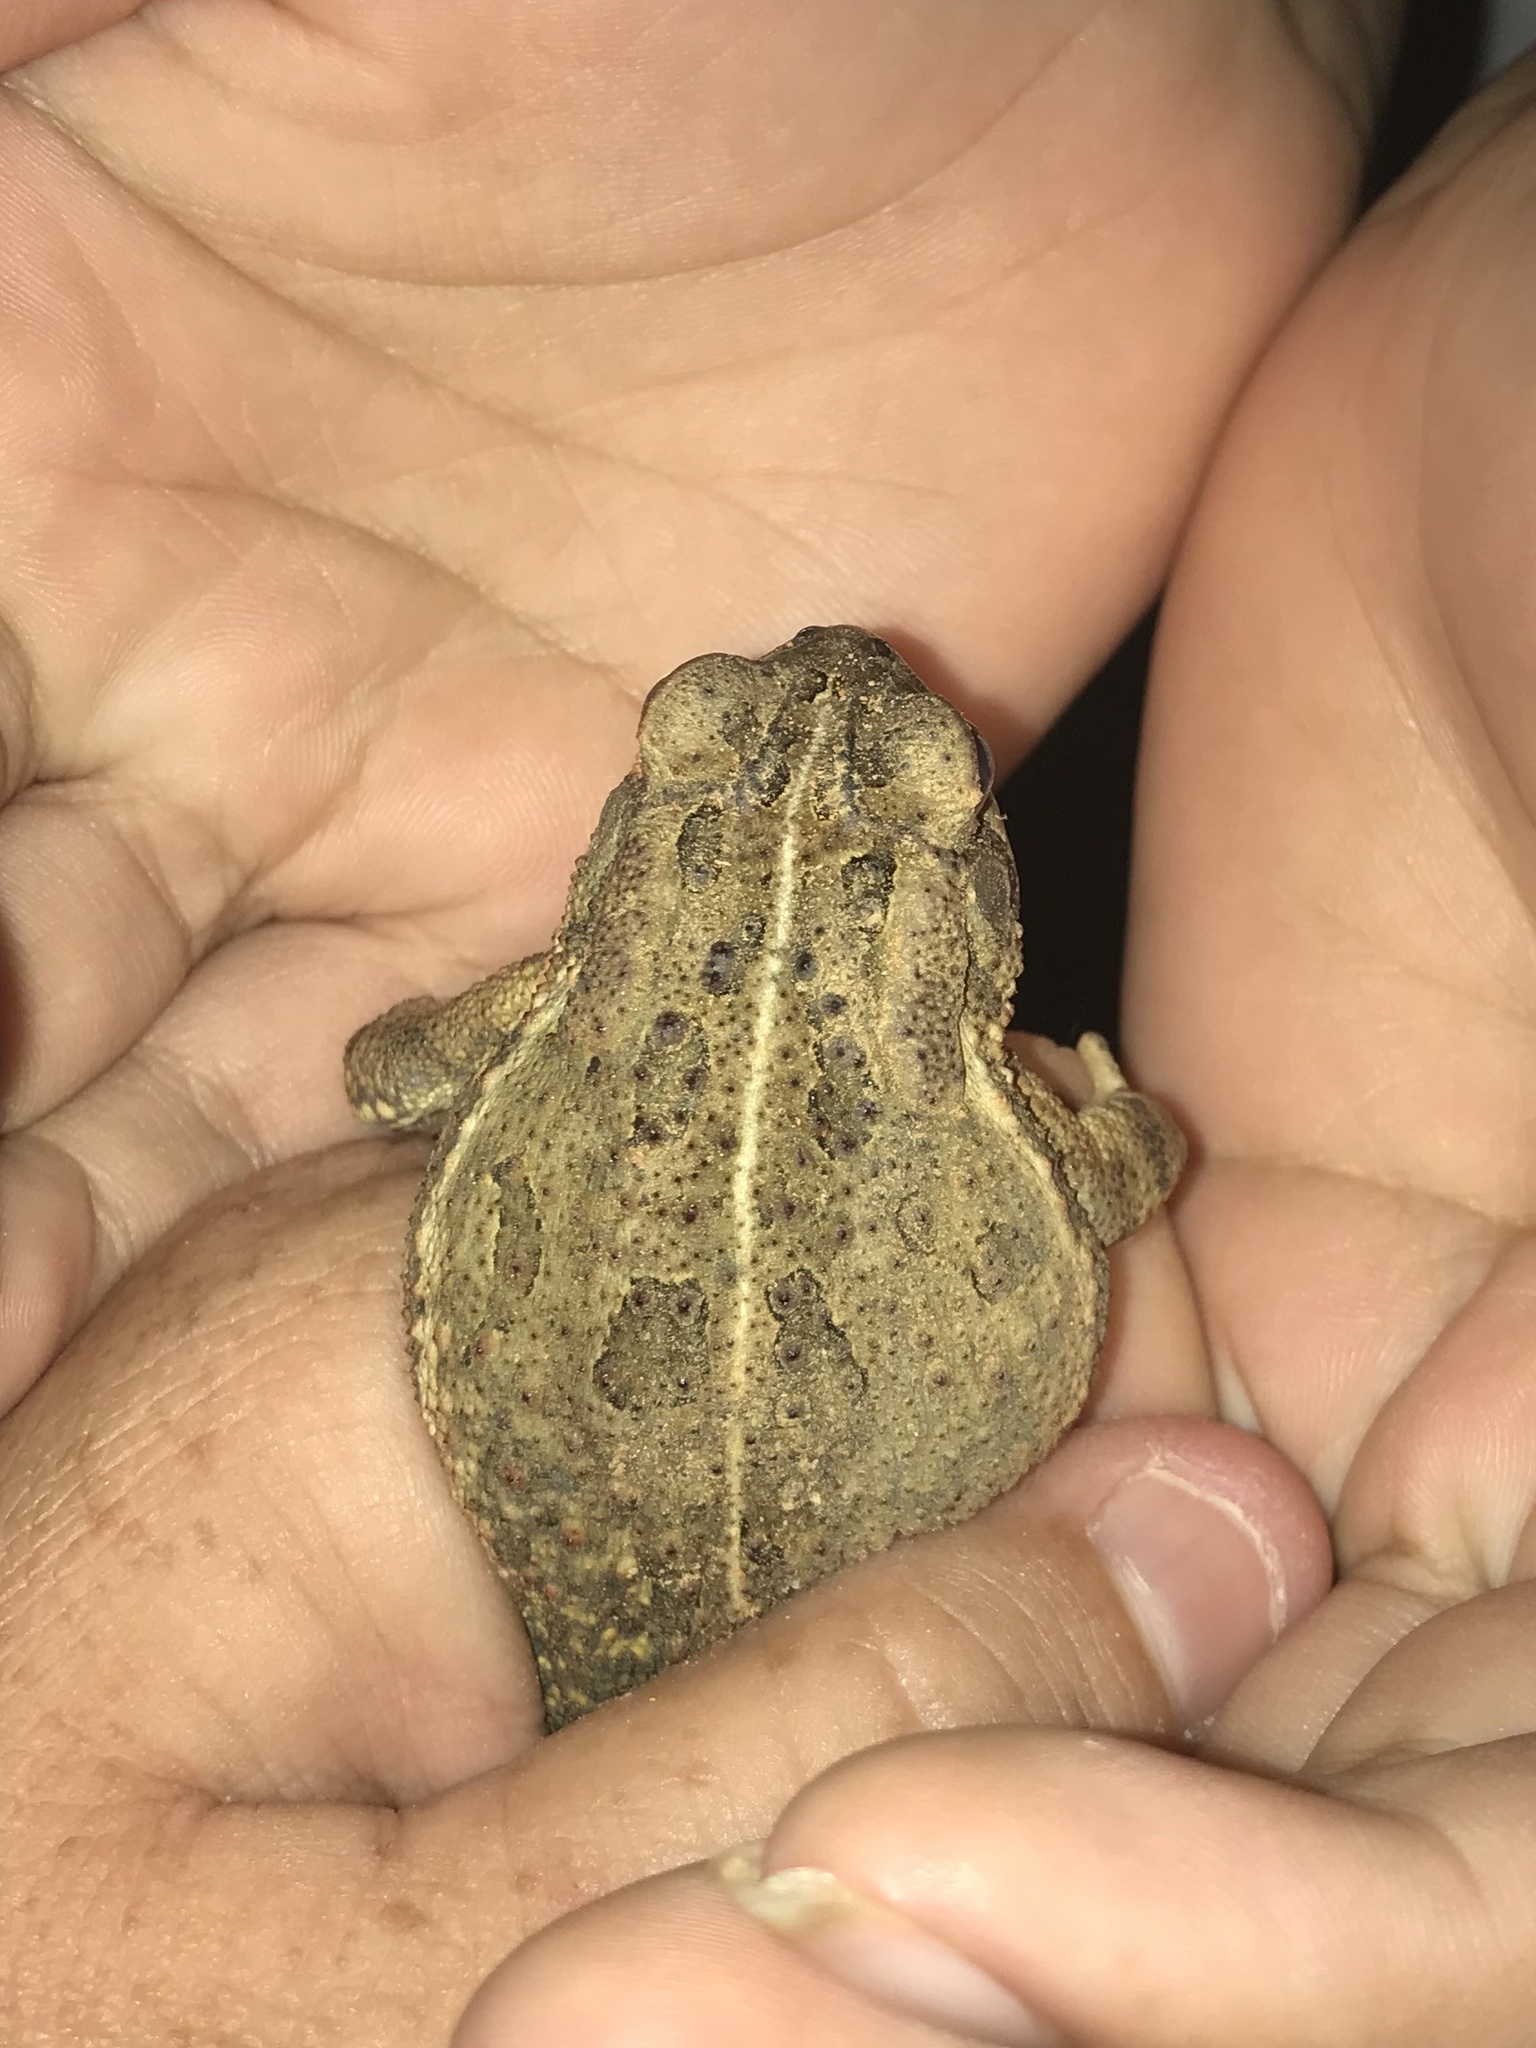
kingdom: Animalia
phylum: Chordata
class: Amphibia
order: Anura
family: Bufonidae
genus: Anaxyrus
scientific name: Anaxyrus fowleri
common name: Fowler's toad
